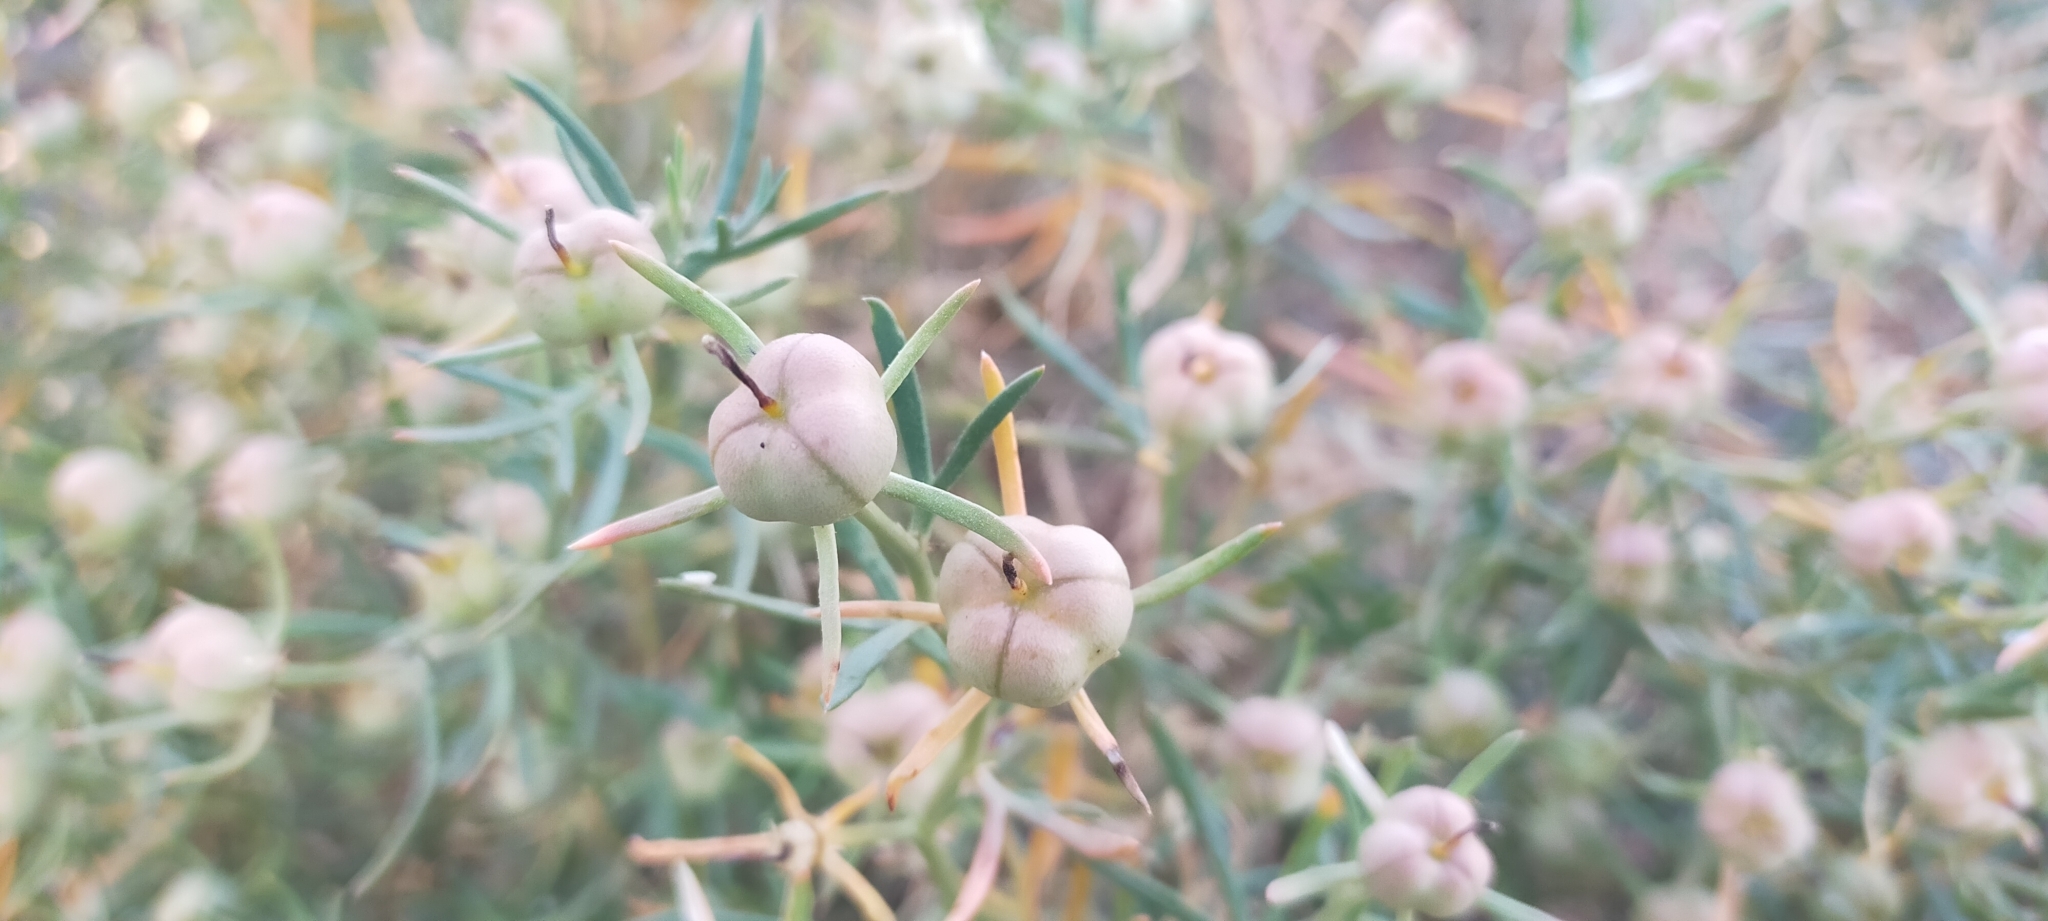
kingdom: Plantae
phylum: Tracheophyta
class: Magnoliopsida
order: Sapindales
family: Tetradiclidaceae
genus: Peganum
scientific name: Peganum harmala
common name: Harmal peganum
